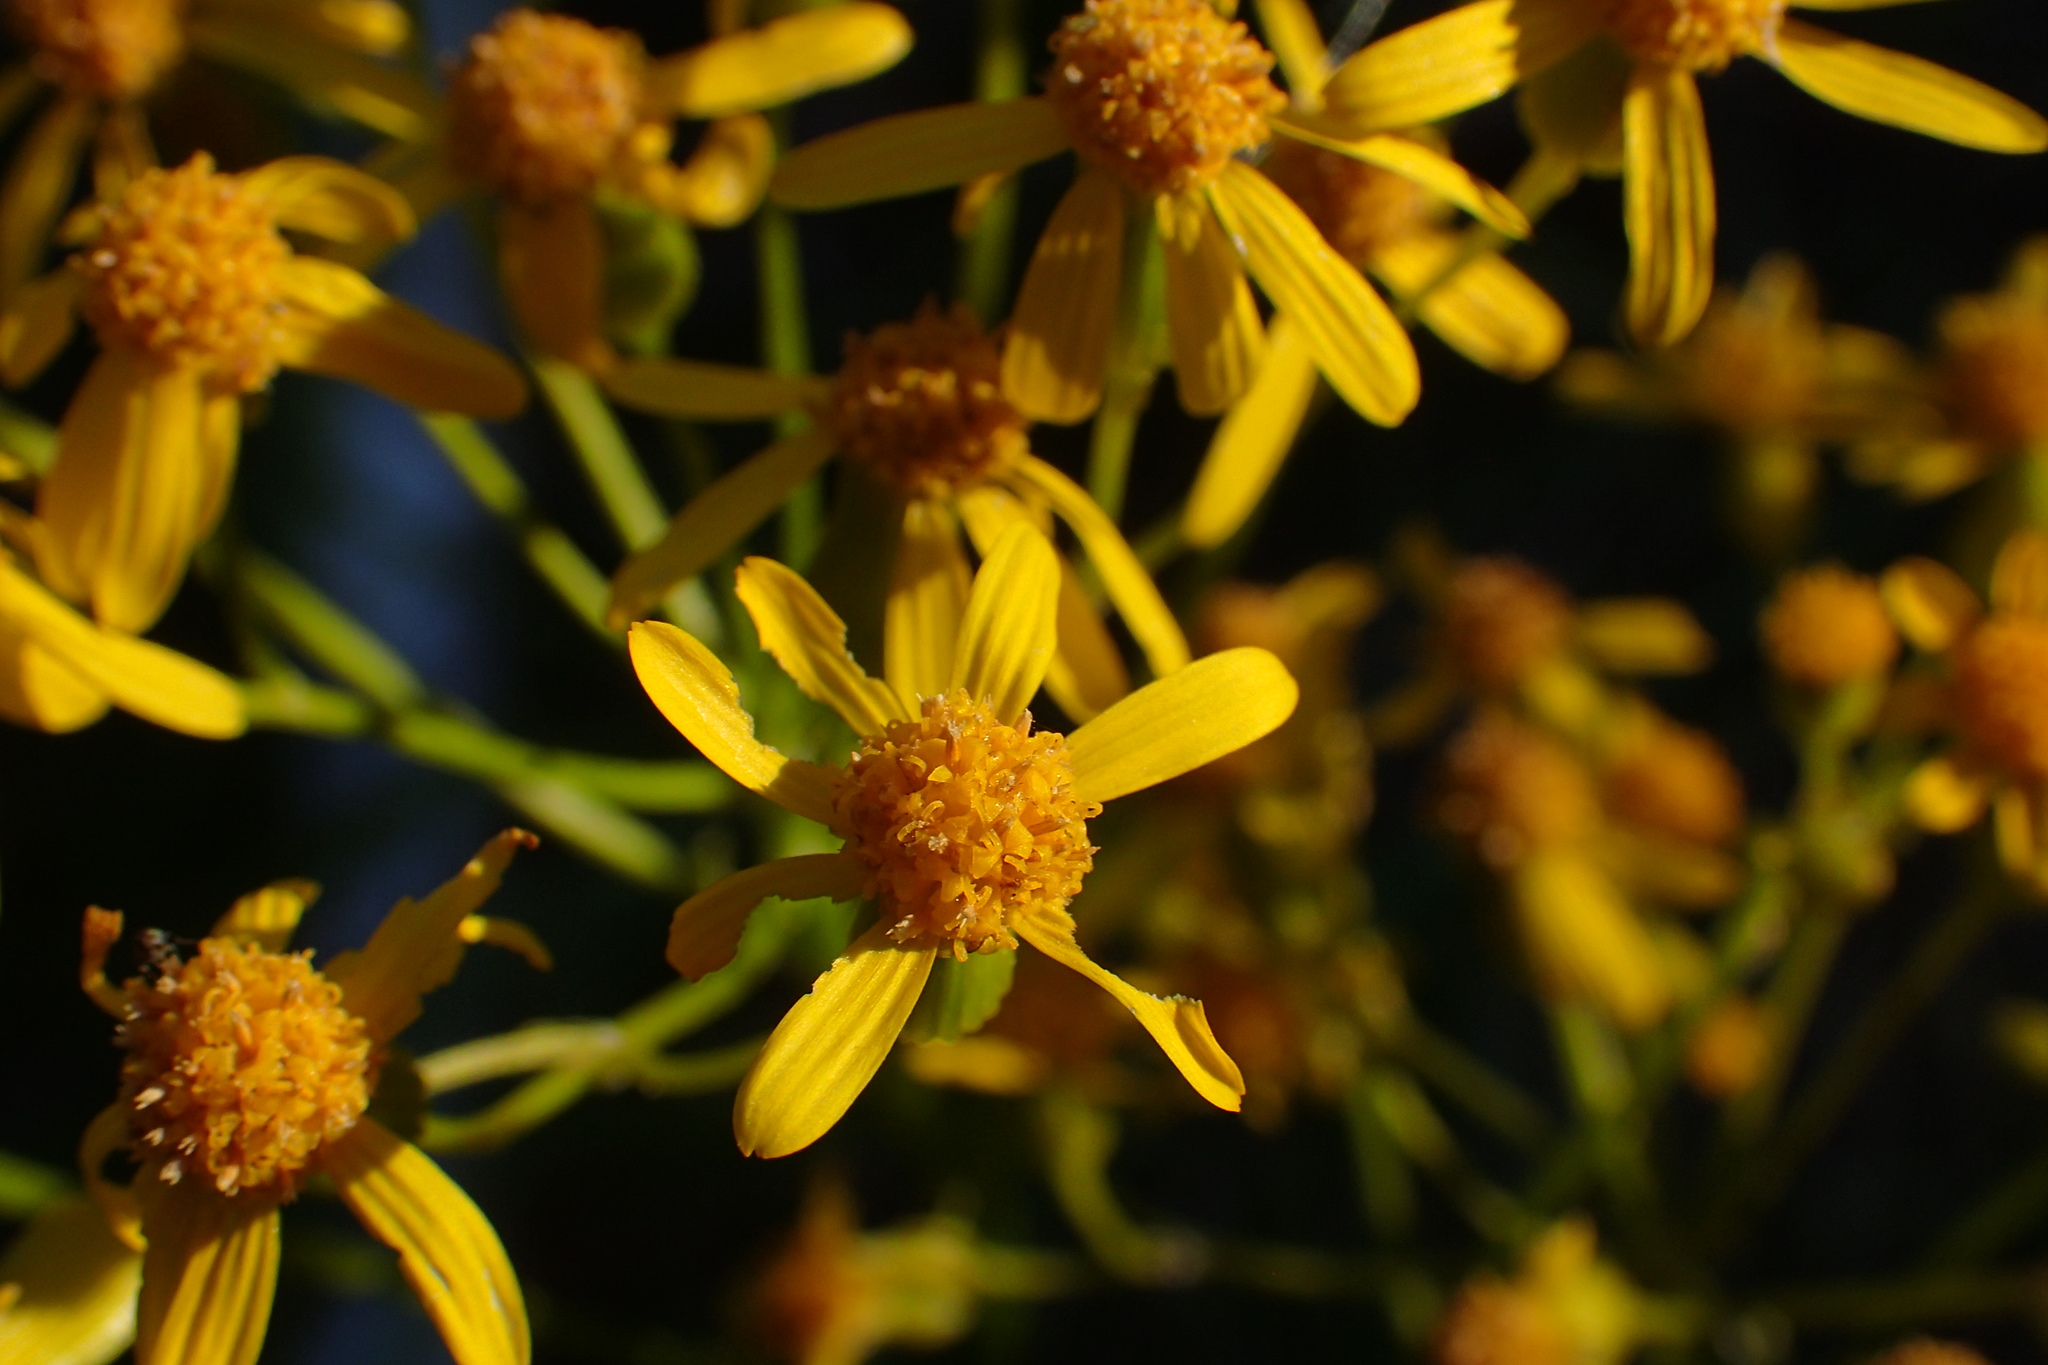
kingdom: Plantae
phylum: Tracheophyta
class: Magnoliopsida
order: Asterales
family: Asteraceae
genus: Packera
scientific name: Packera anonyma
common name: Small ragwort
